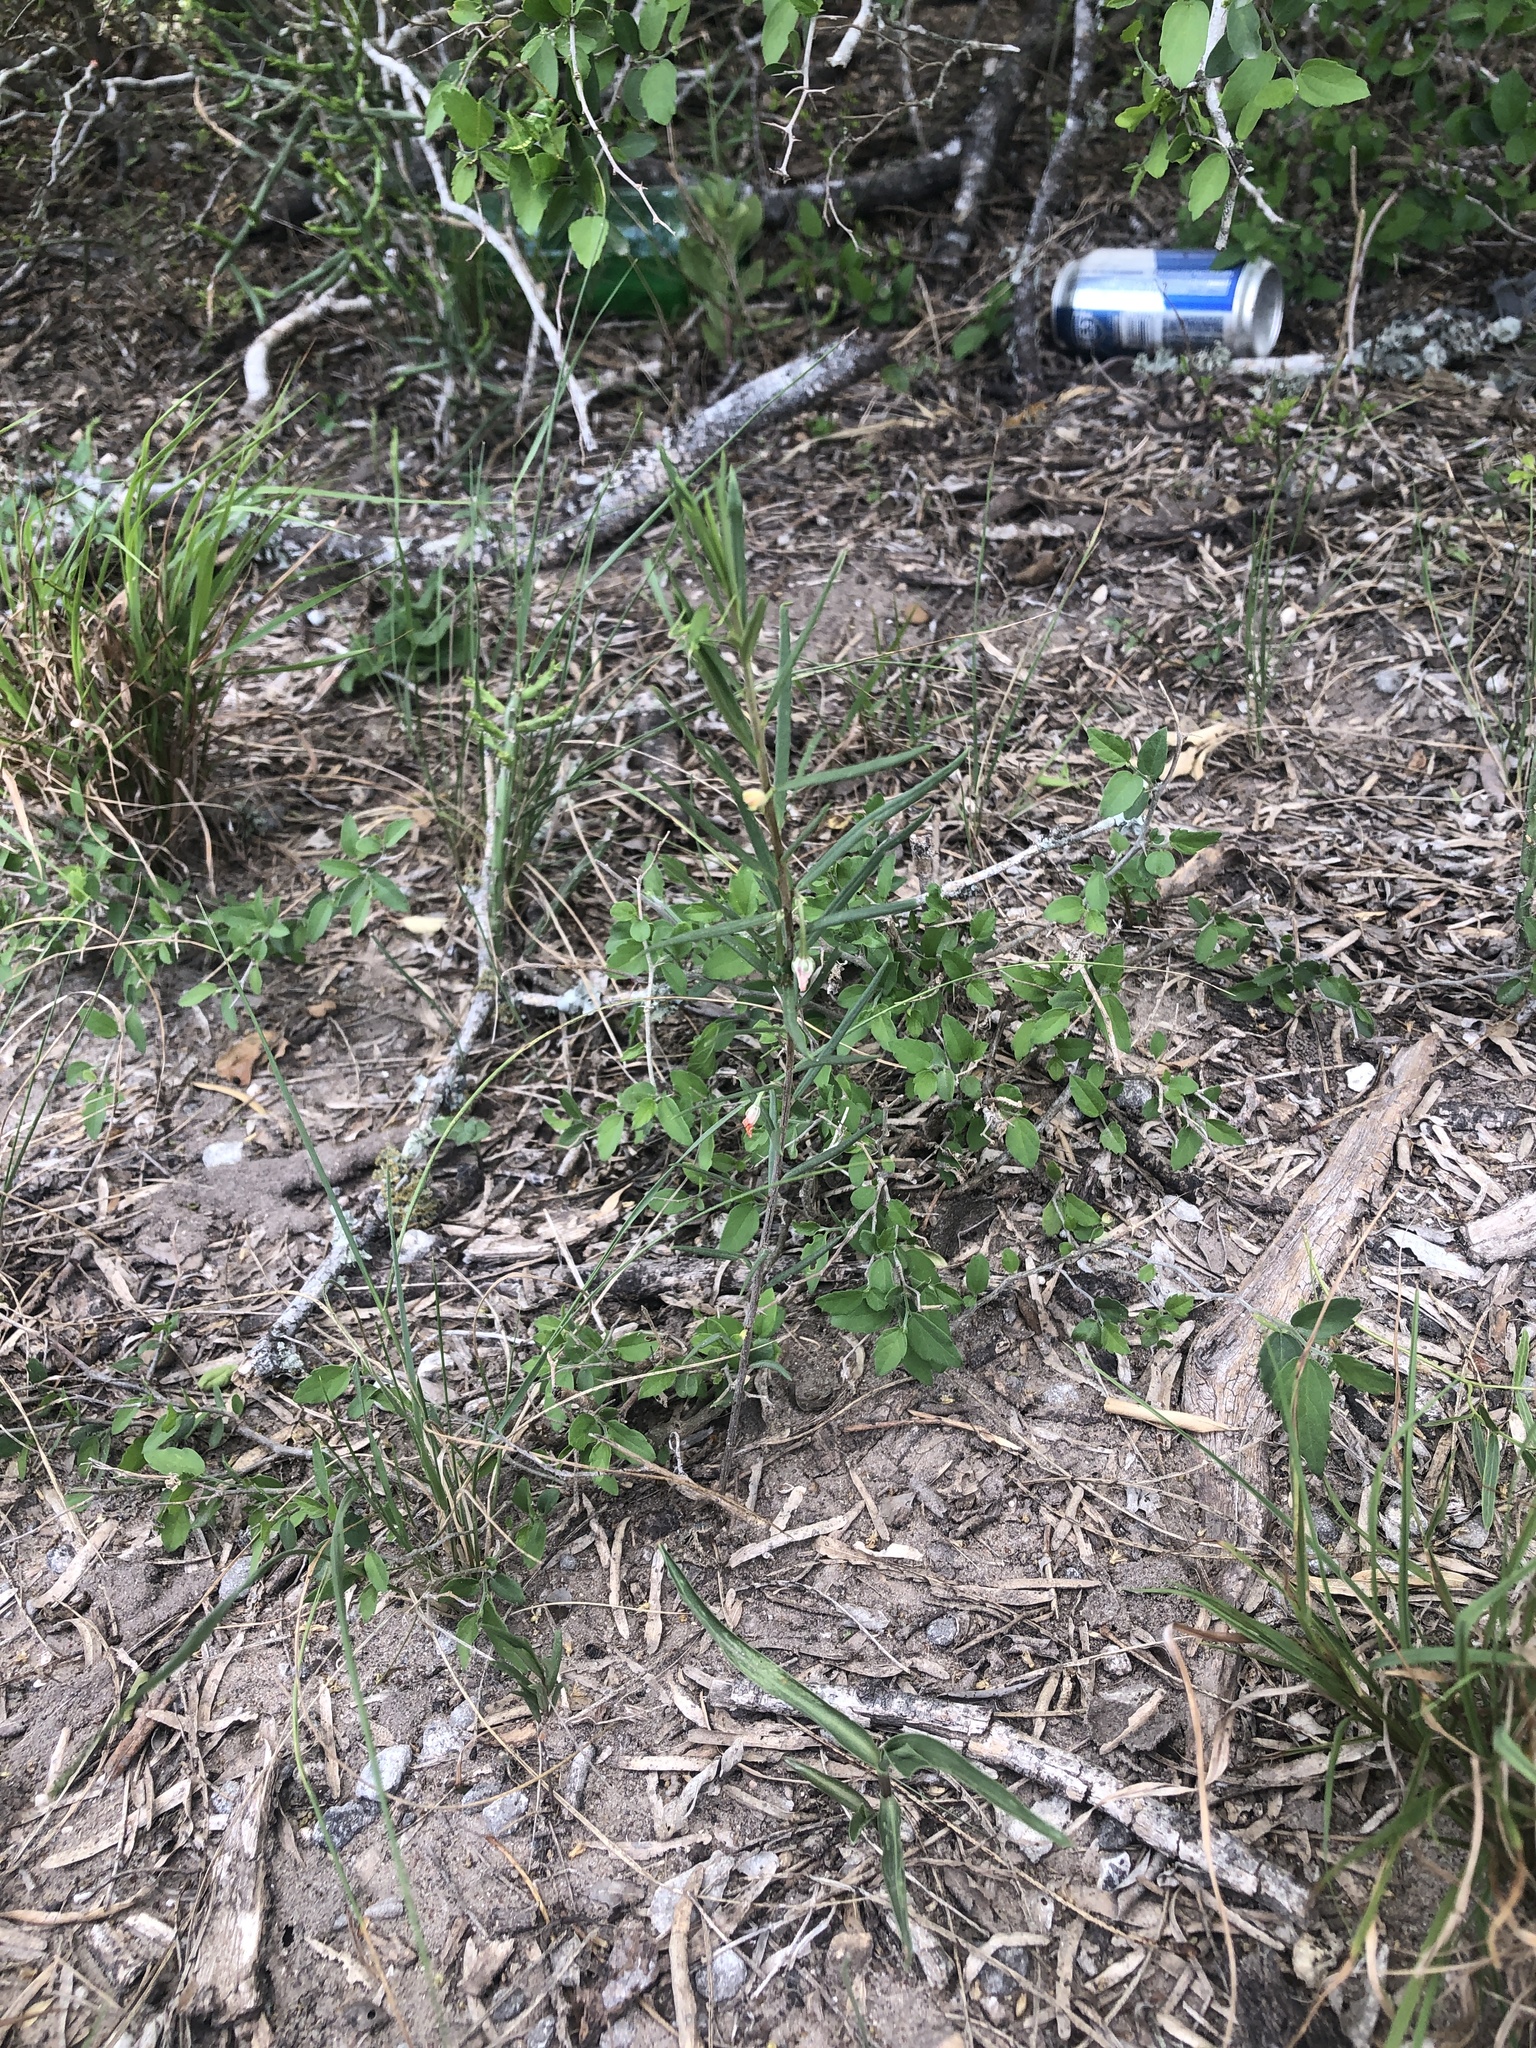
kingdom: Plantae
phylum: Tracheophyta
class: Magnoliopsida
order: Caryophyllales
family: Talinaceae
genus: Talinum
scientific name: Talinum polygaloides
